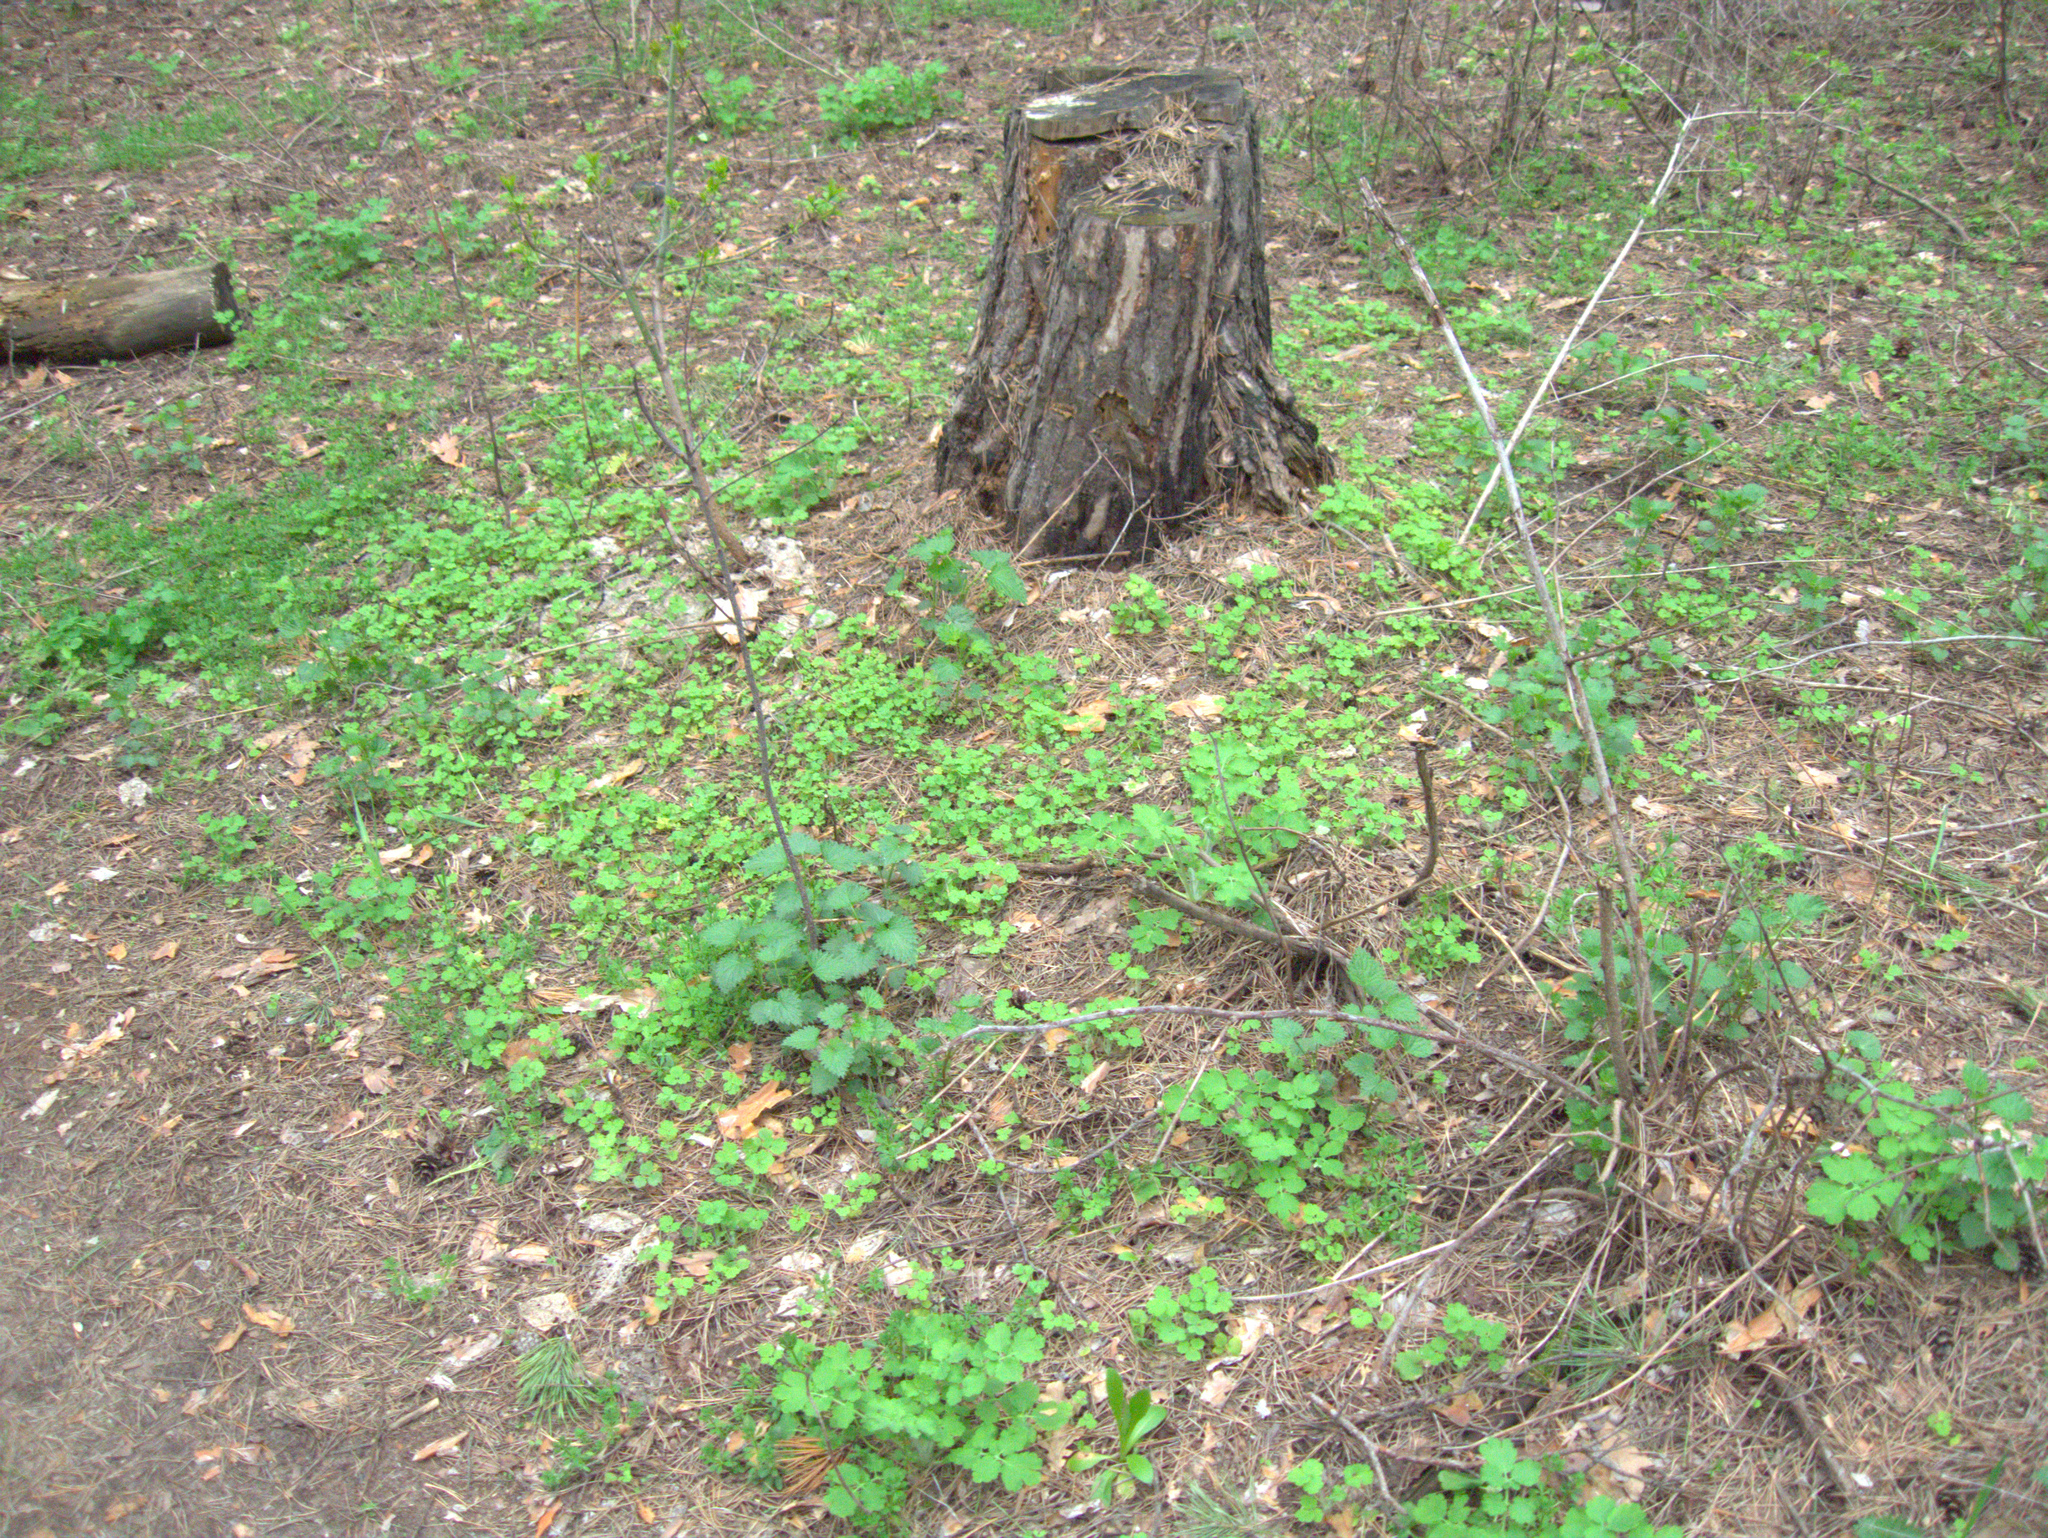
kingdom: Plantae
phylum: Tracheophyta
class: Magnoliopsida
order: Ranunculales
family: Papaveraceae
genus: Chelidonium
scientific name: Chelidonium majus
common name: Greater celandine
